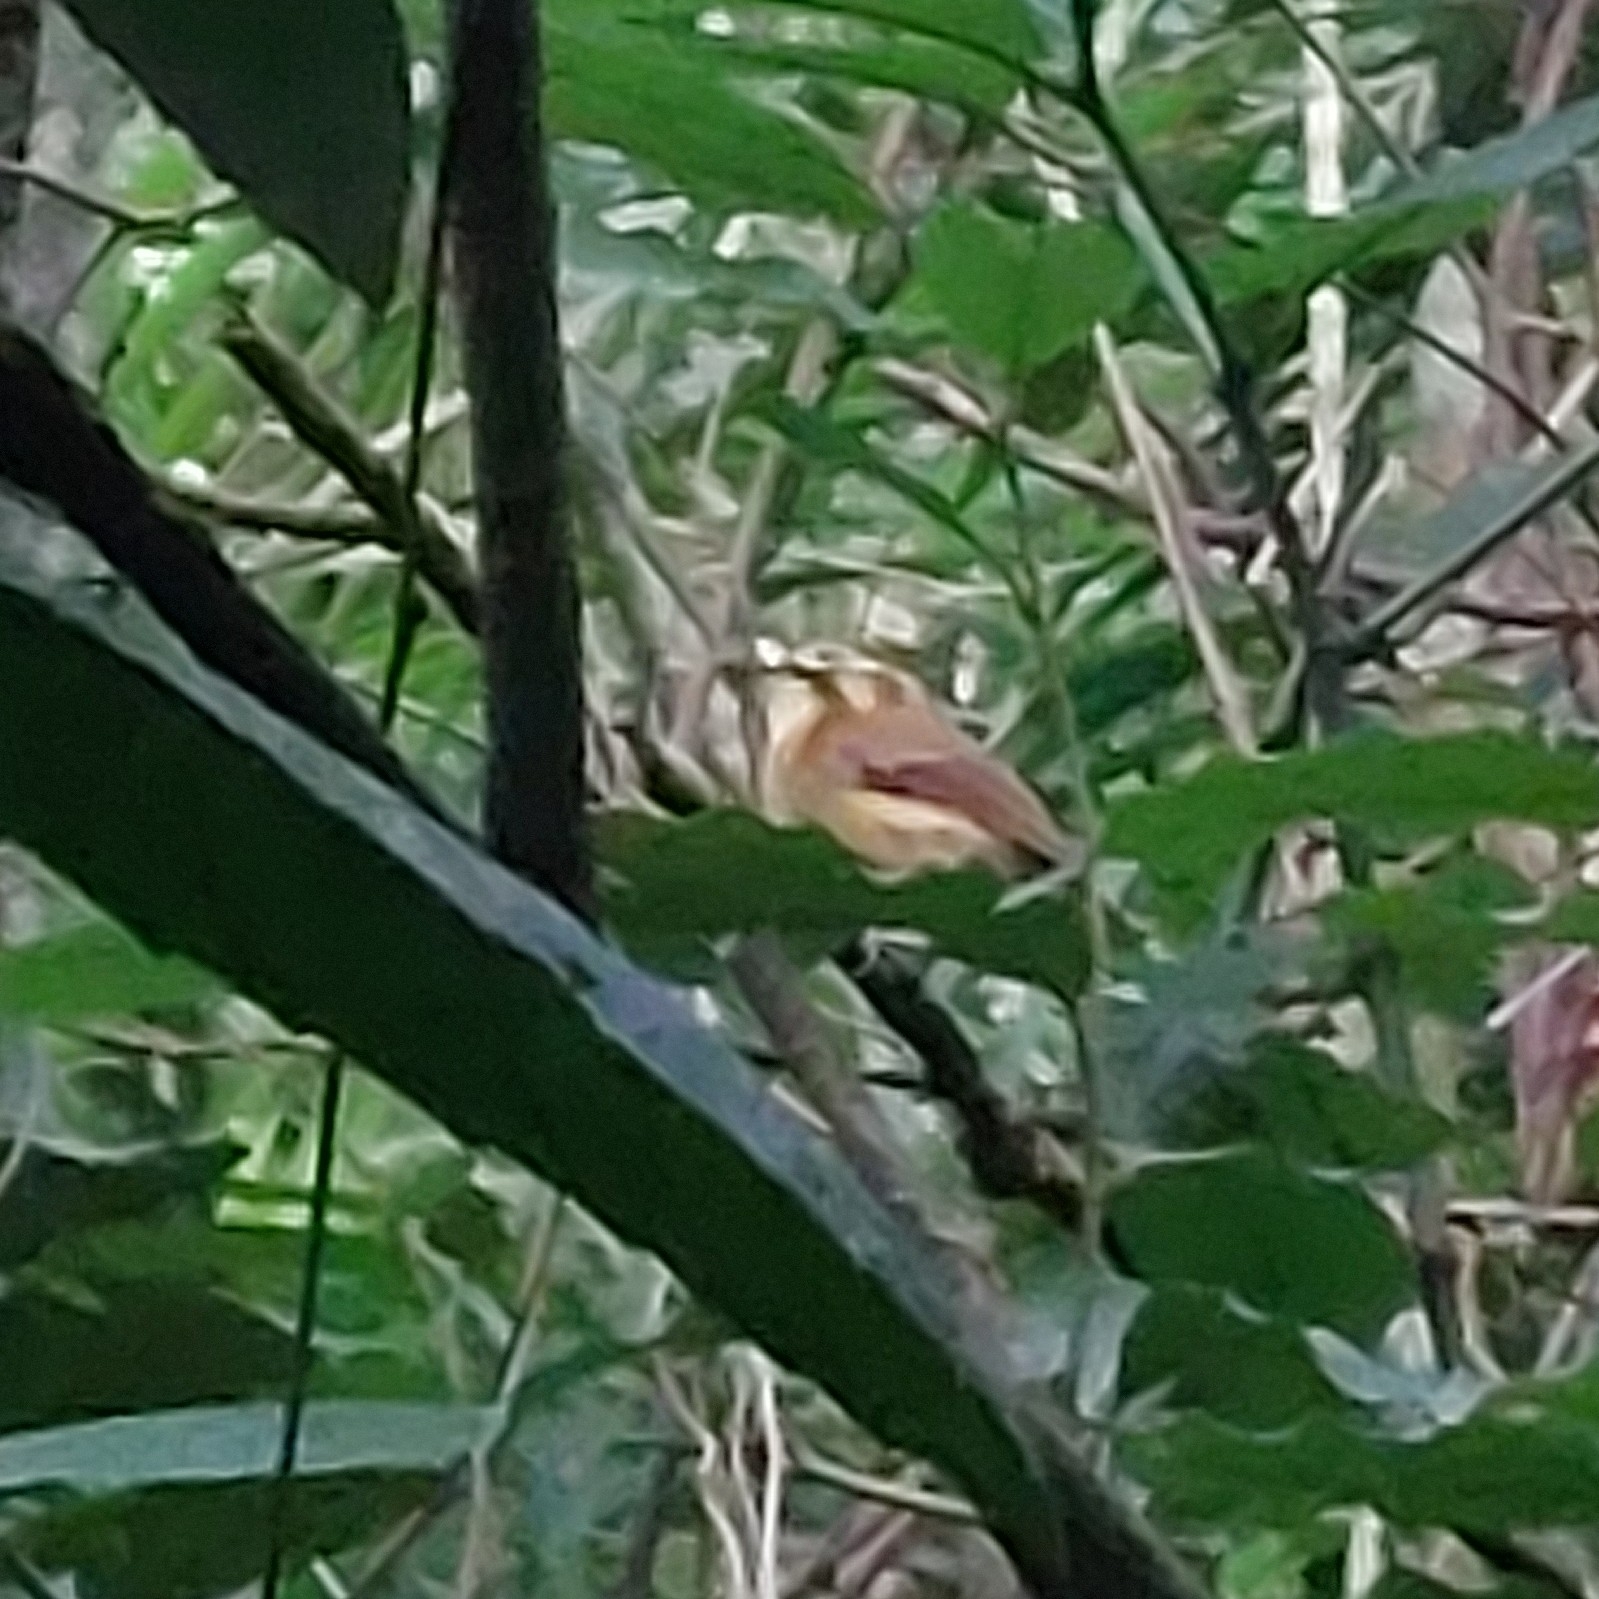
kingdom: Animalia
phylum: Chordata
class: Aves
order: Passeriformes
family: Tyrannidae
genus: Platyrinchus
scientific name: Platyrinchus mystaceus
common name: White-throated spadebill
